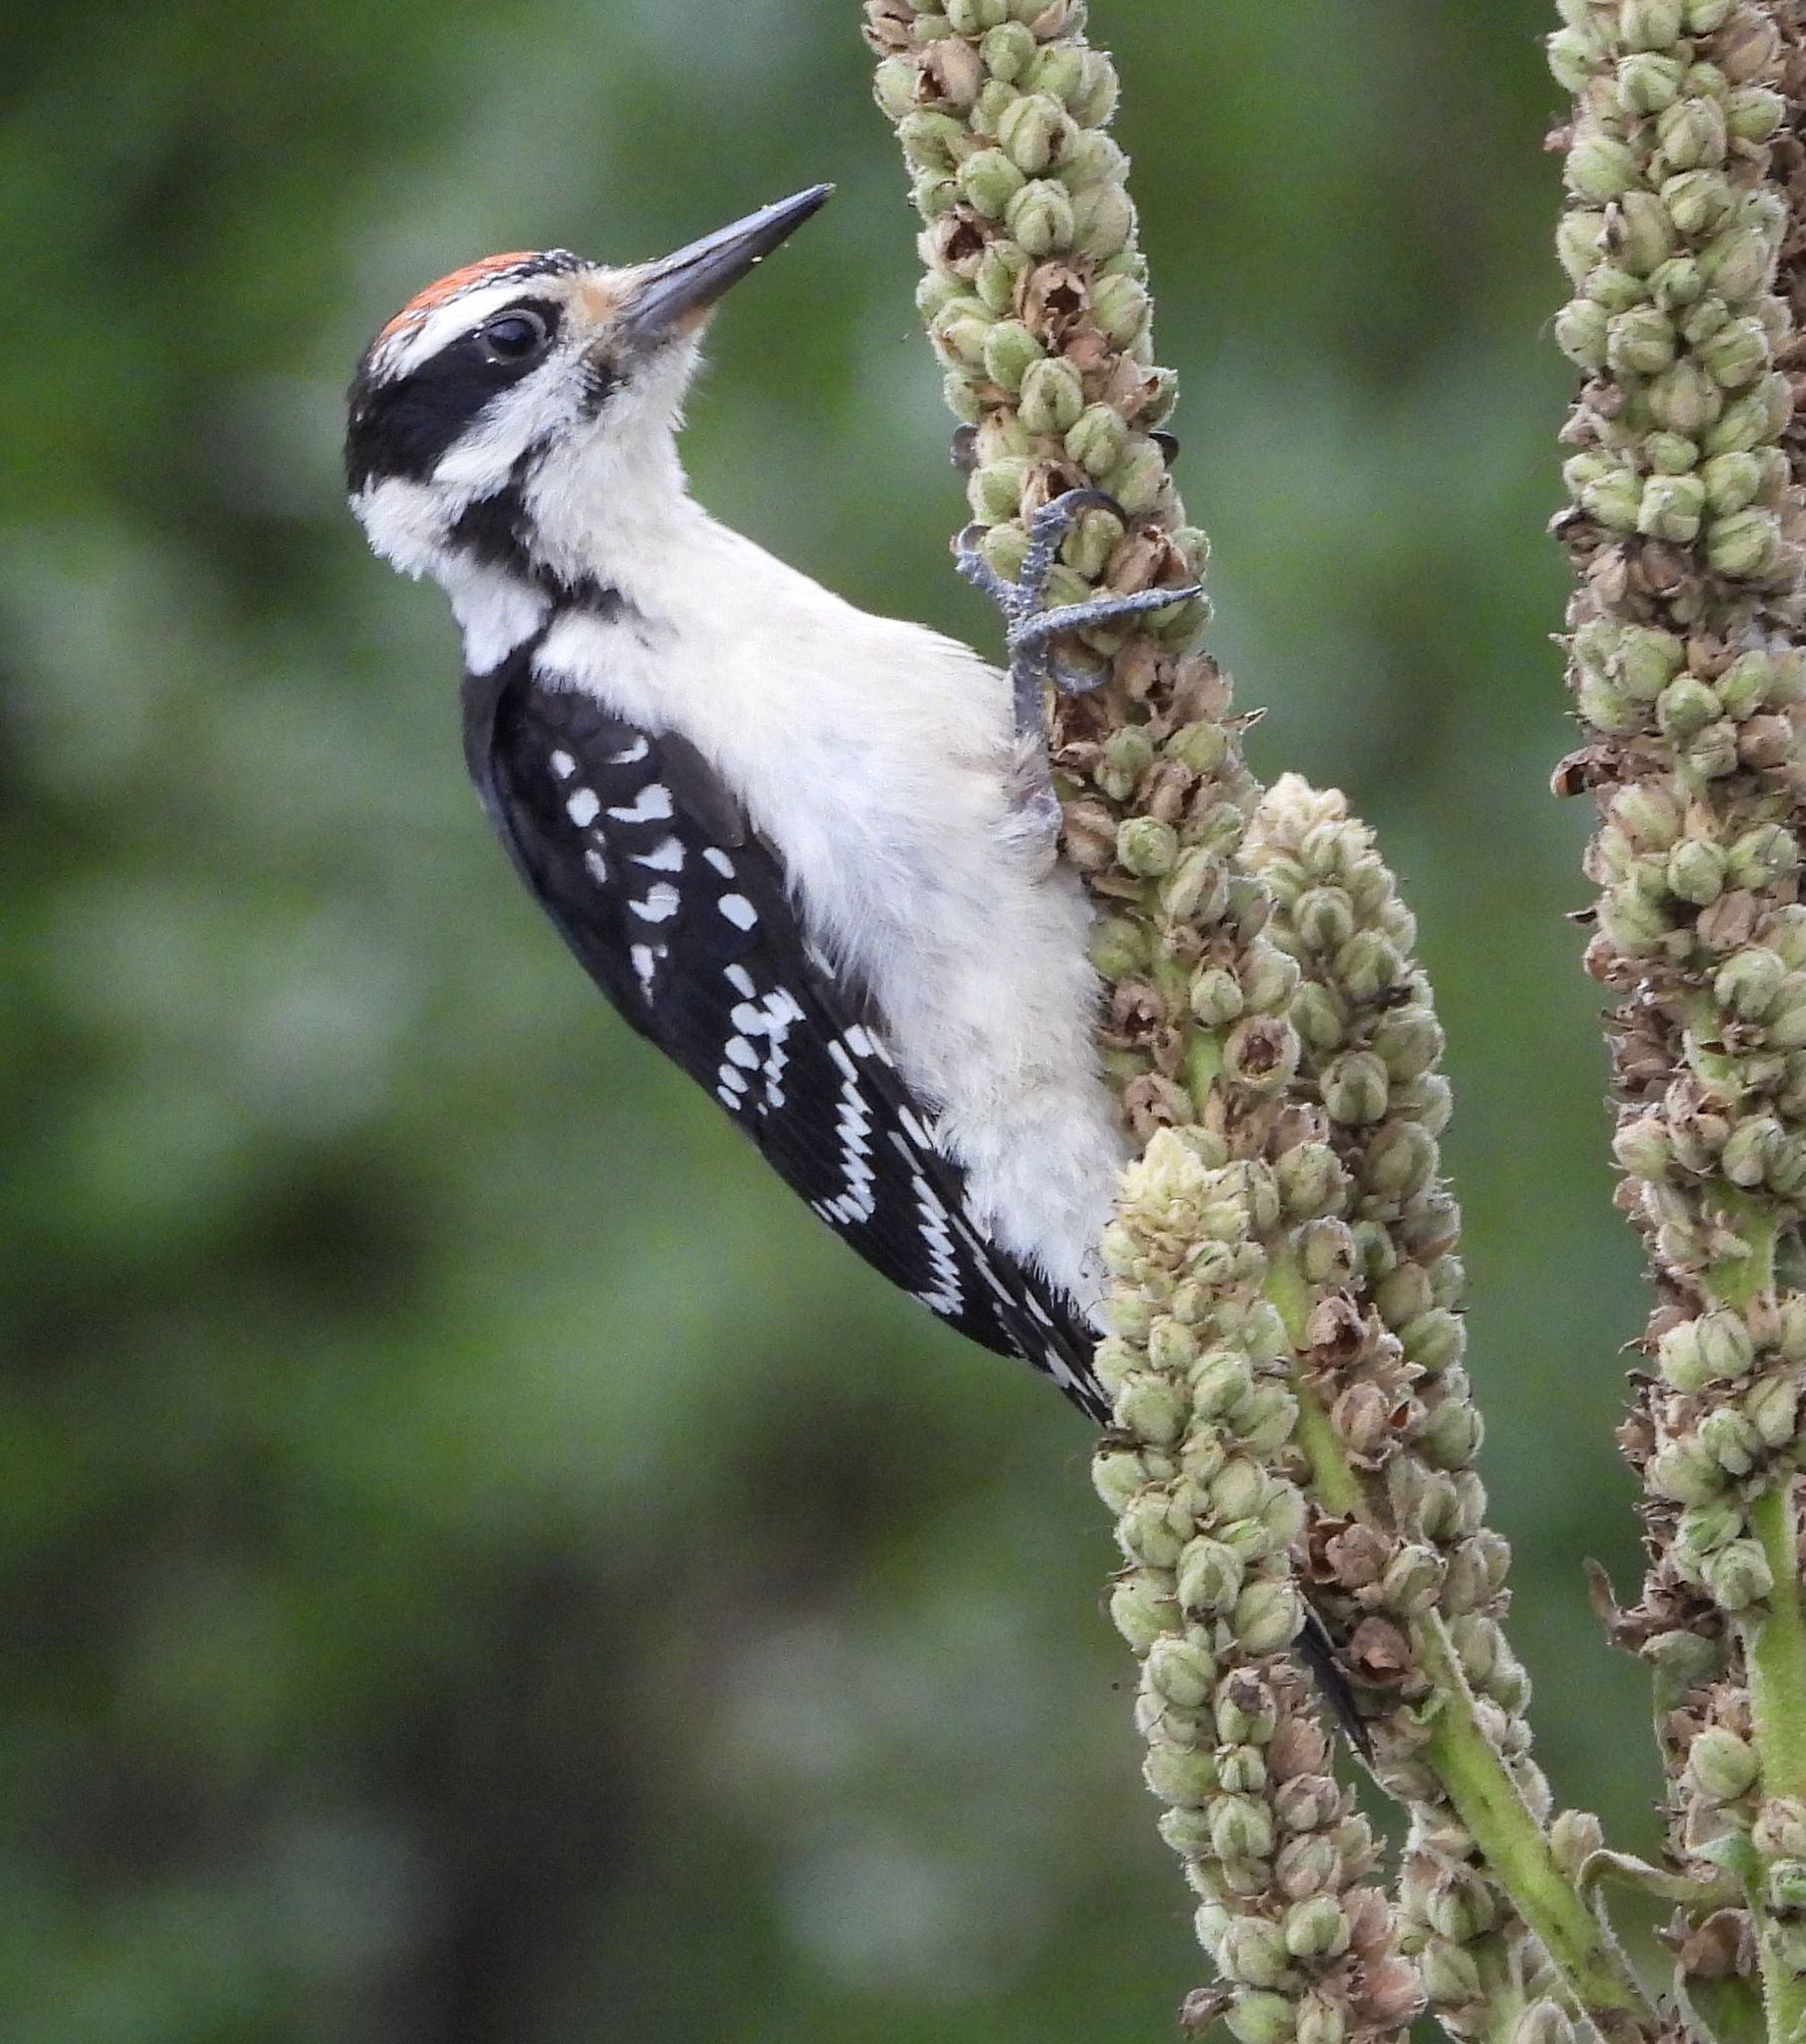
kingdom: Animalia
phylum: Chordata
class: Aves
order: Piciformes
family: Picidae
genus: Leuconotopicus
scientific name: Leuconotopicus villosus
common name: Hairy woodpecker
